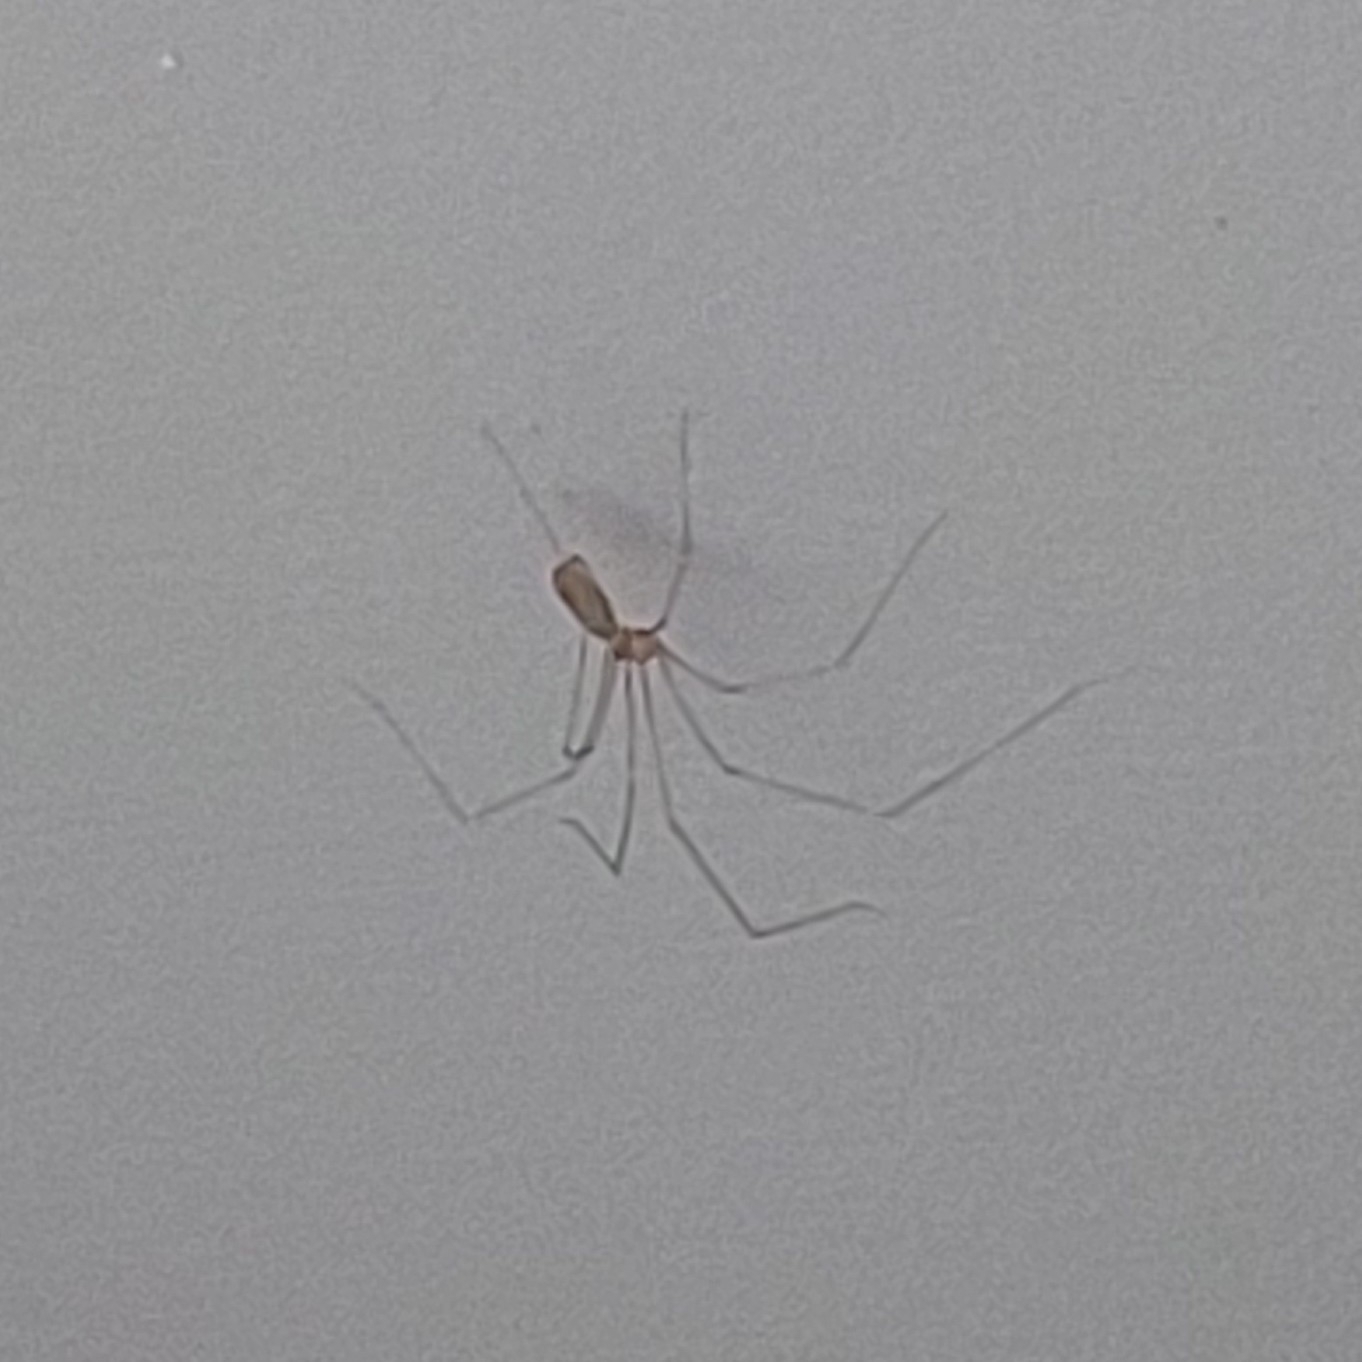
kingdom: Animalia
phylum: Arthropoda
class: Arachnida
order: Araneae
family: Pholcidae
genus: Pholcus
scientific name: Pholcus phalangioides
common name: Longbodied cellar spider
